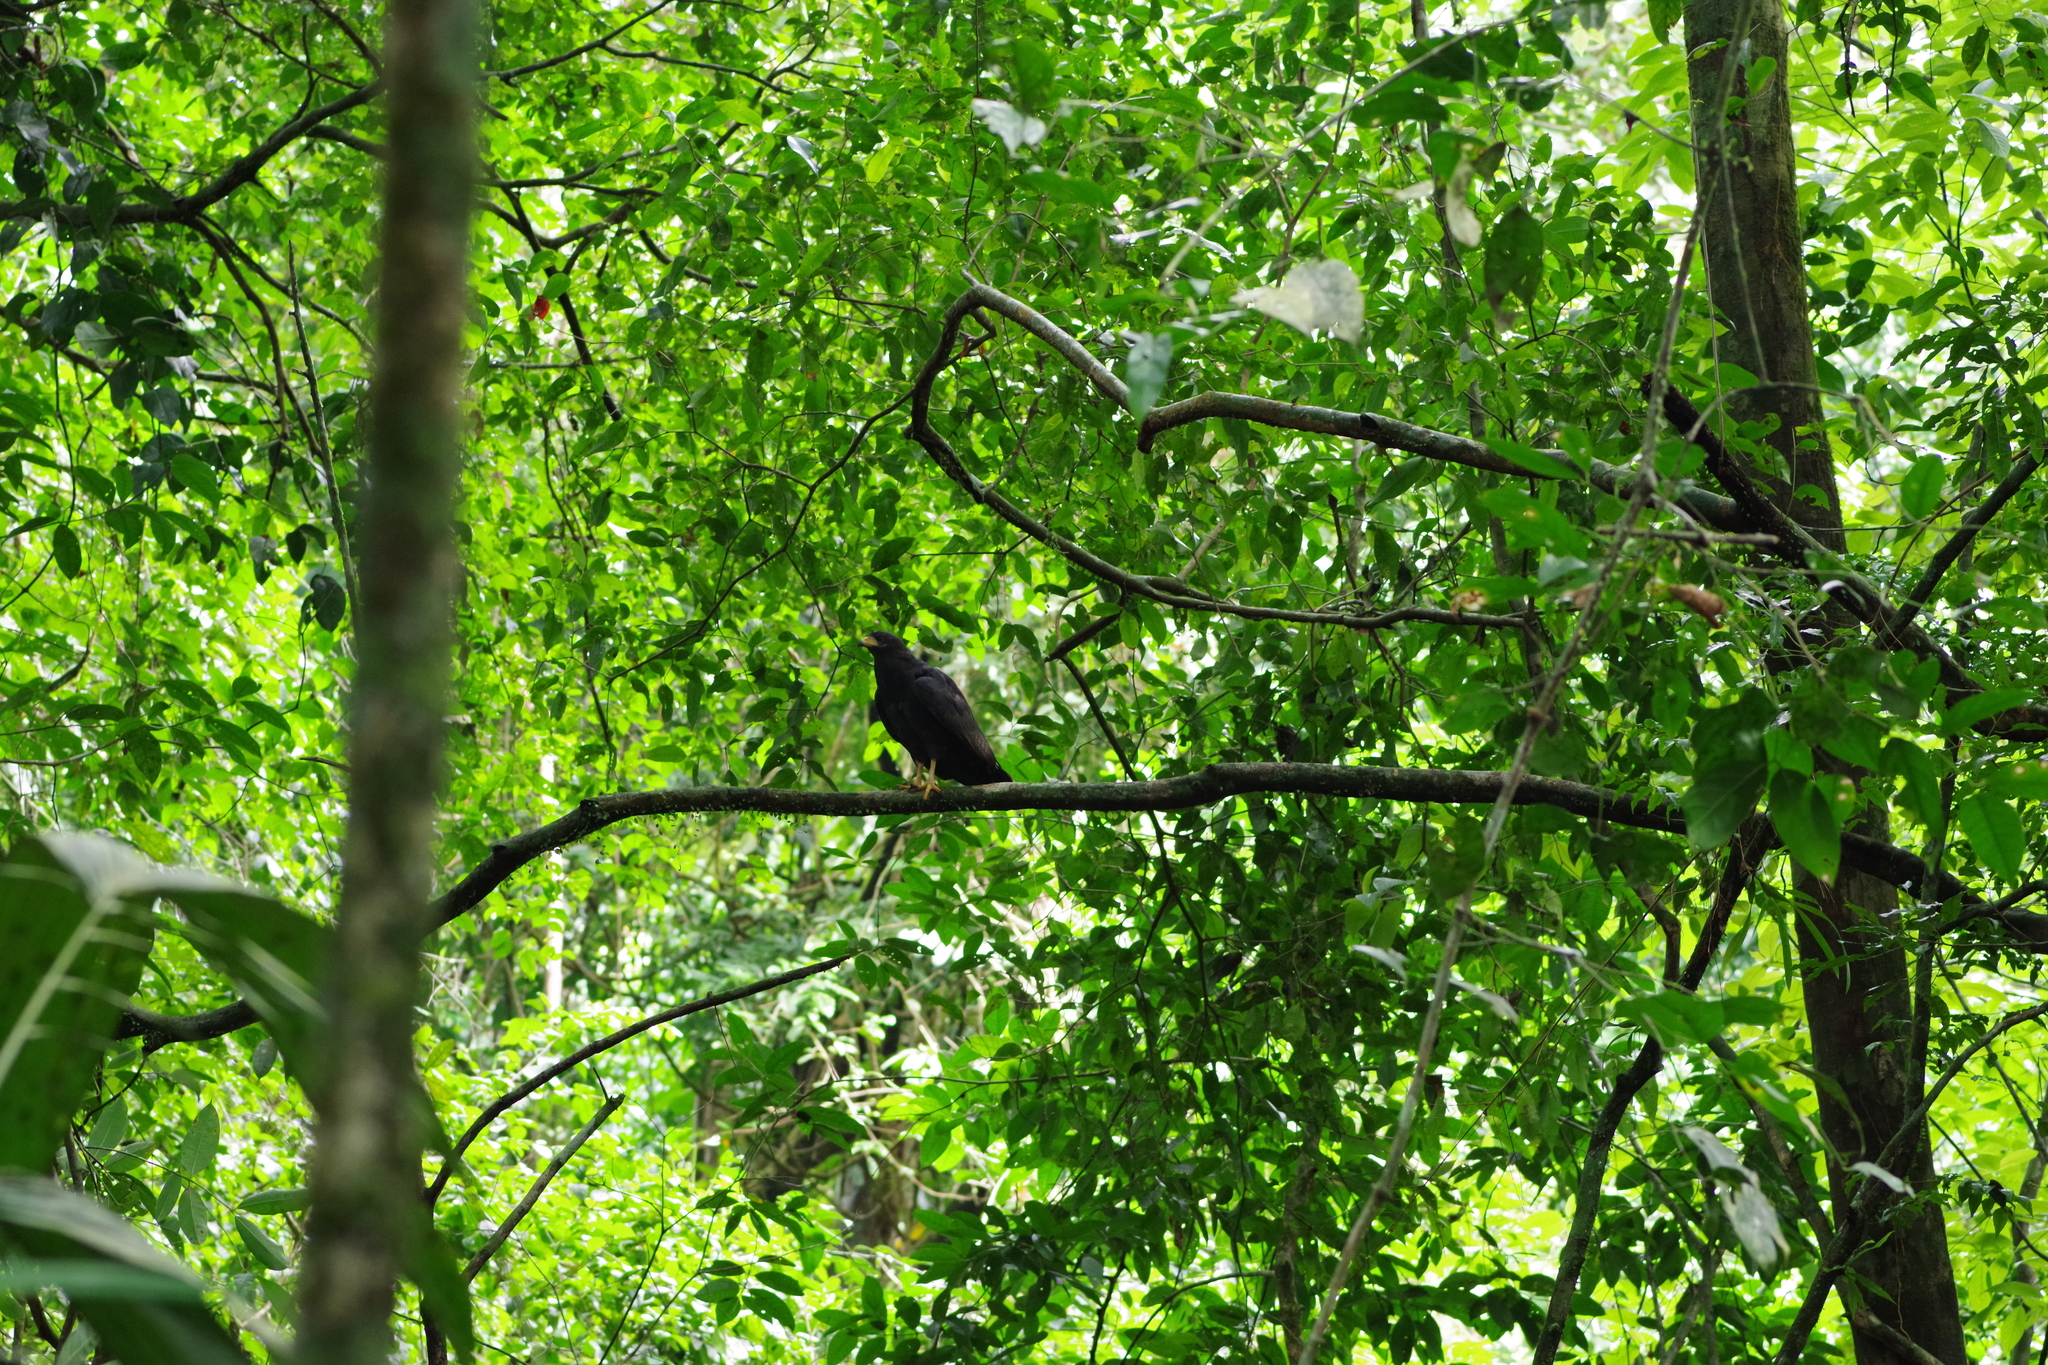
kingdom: Animalia
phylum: Chordata
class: Aves
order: Accipitriformes
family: Accipitridae
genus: Buteogallus
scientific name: Buteogallus anthracinus
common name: Common black hawk
